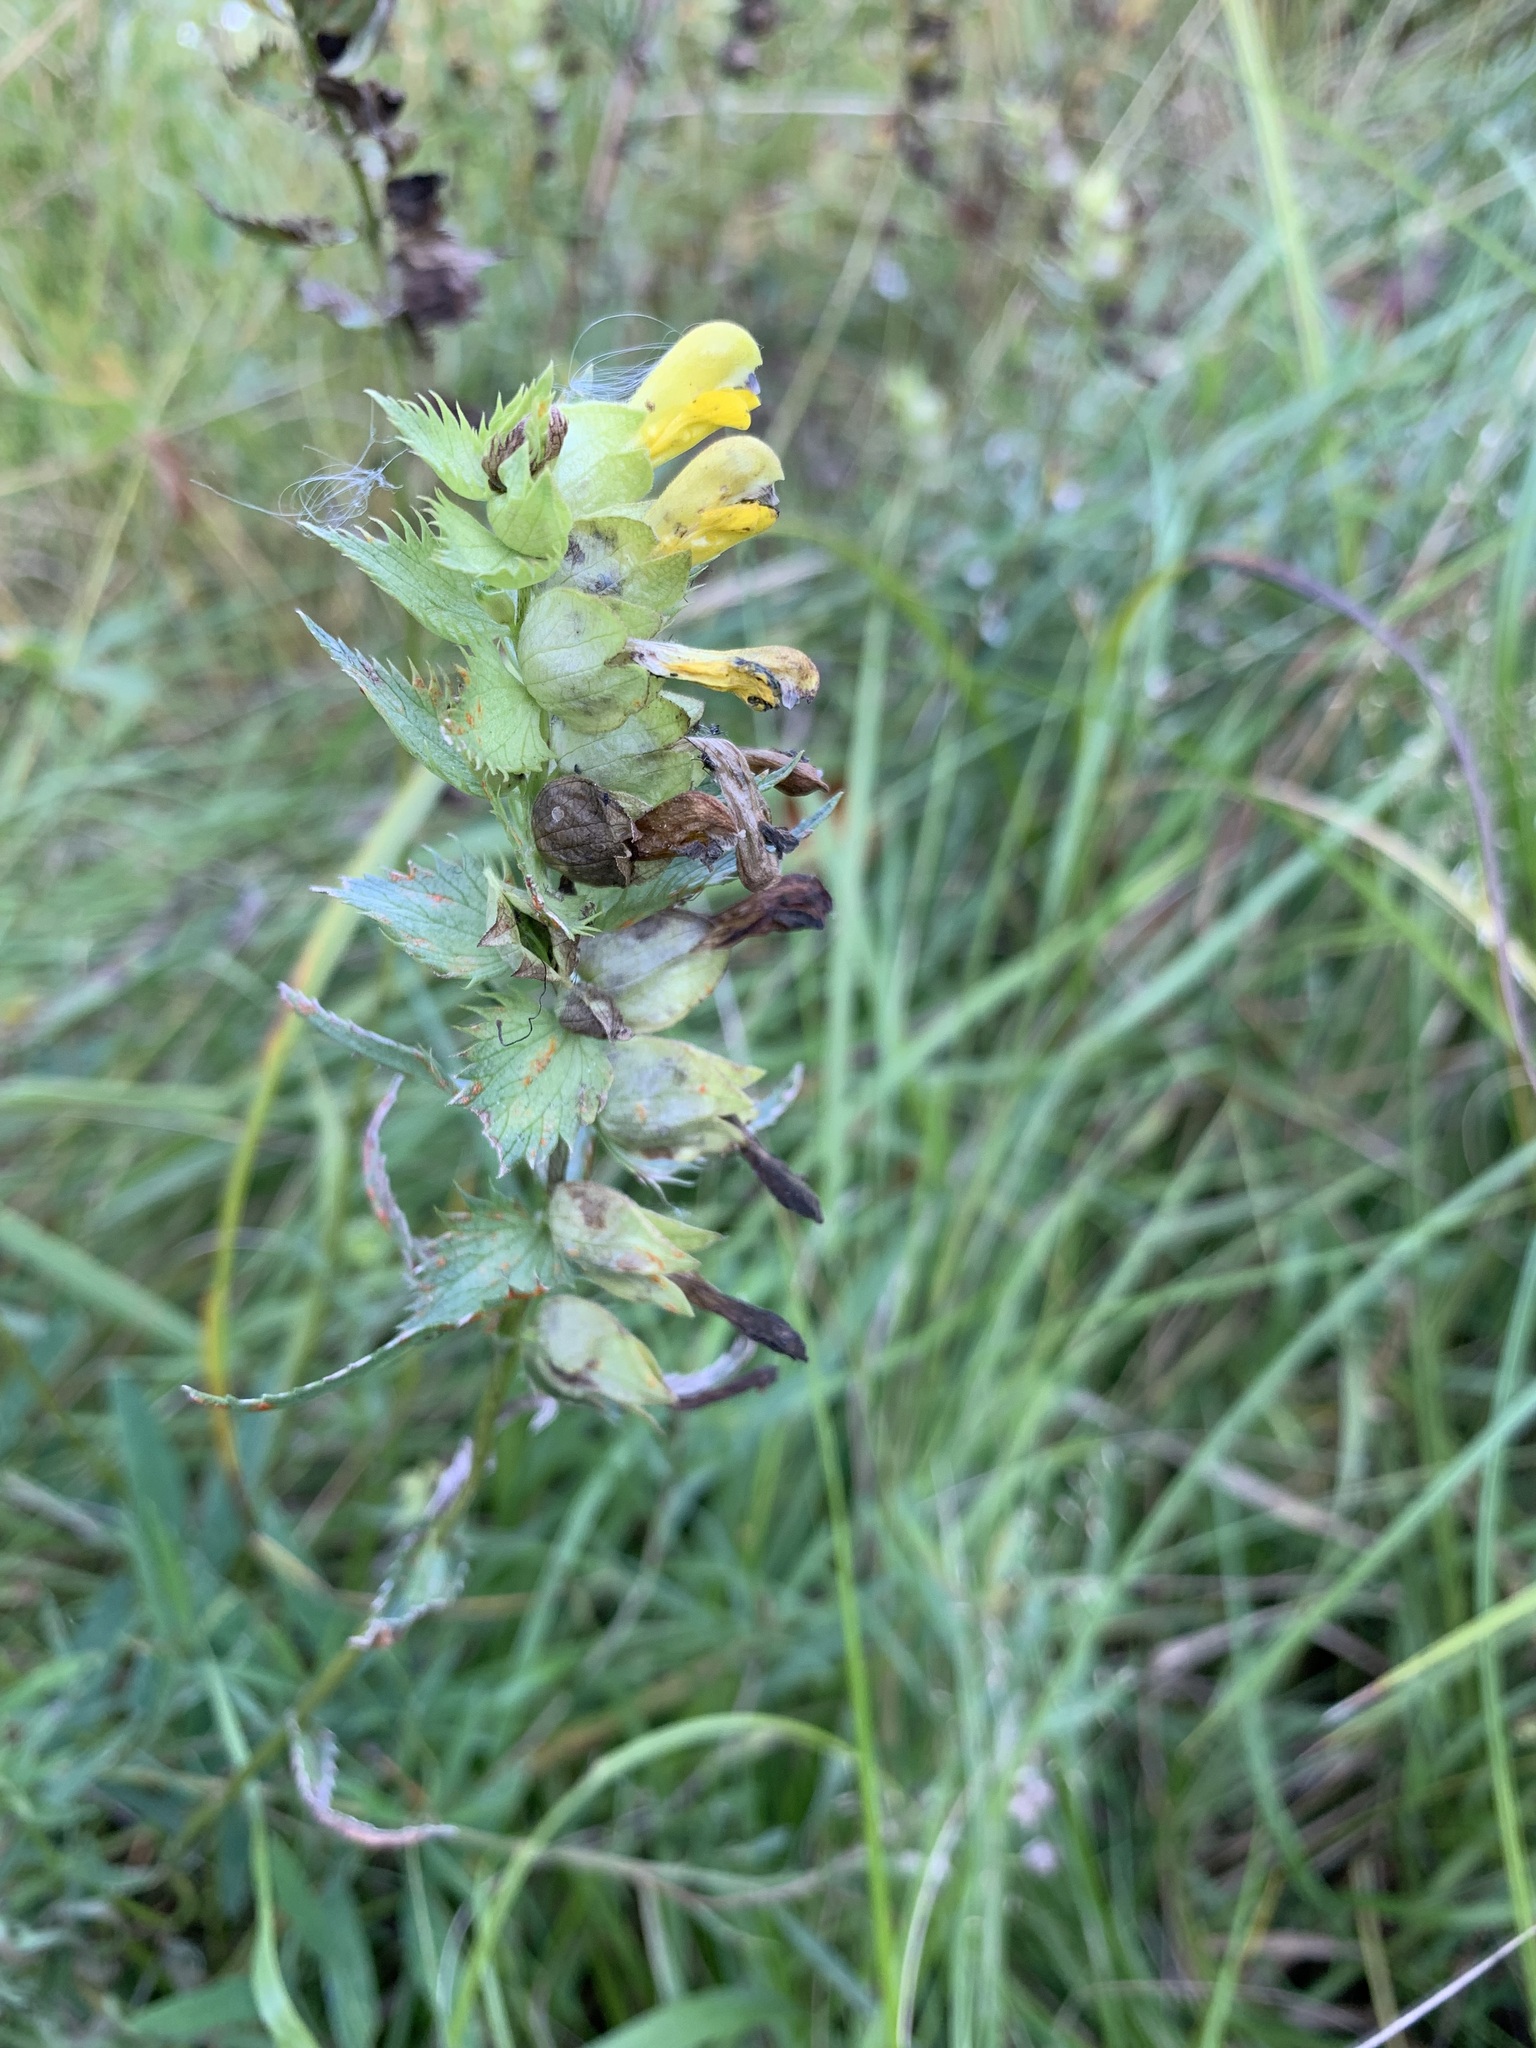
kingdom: Plantae
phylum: Tracheophyta
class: Magnoliopsida
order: Lamiales
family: Orobanchaceae
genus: Rhinanthus
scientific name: Rhinanthus serotinus
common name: Late-flowering yellow rattle
